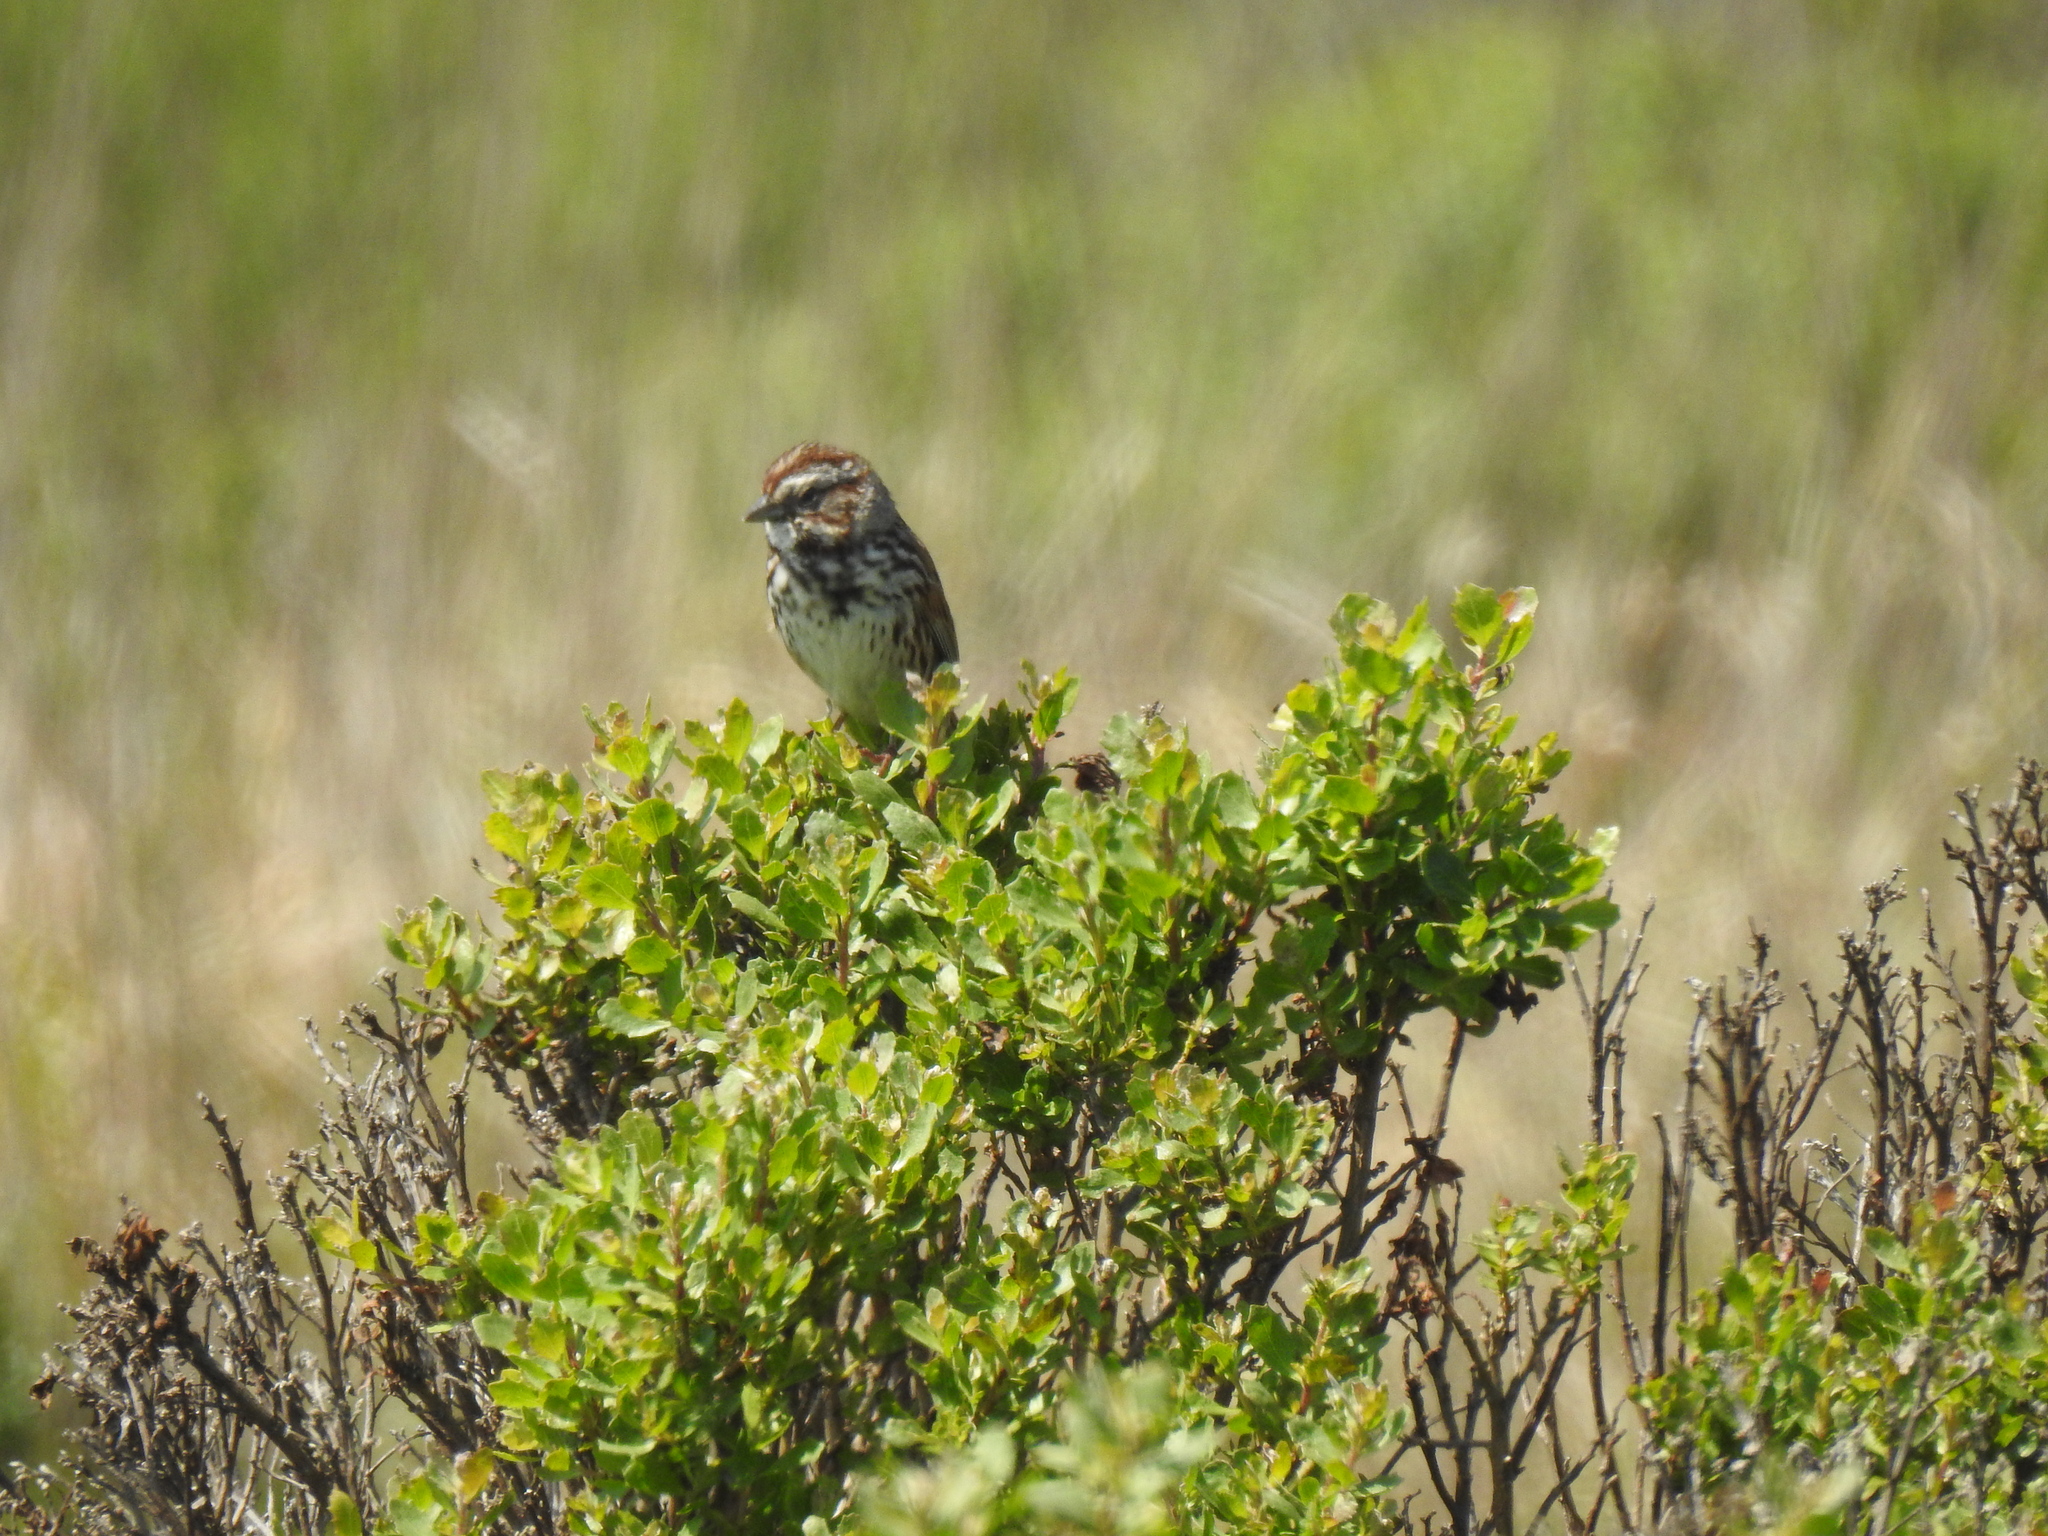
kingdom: Animalia
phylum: Chordata
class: Aves
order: Passeriformes
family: Passerellidae
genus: Melospiza
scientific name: Melospiza melodia
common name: Song sparrow
